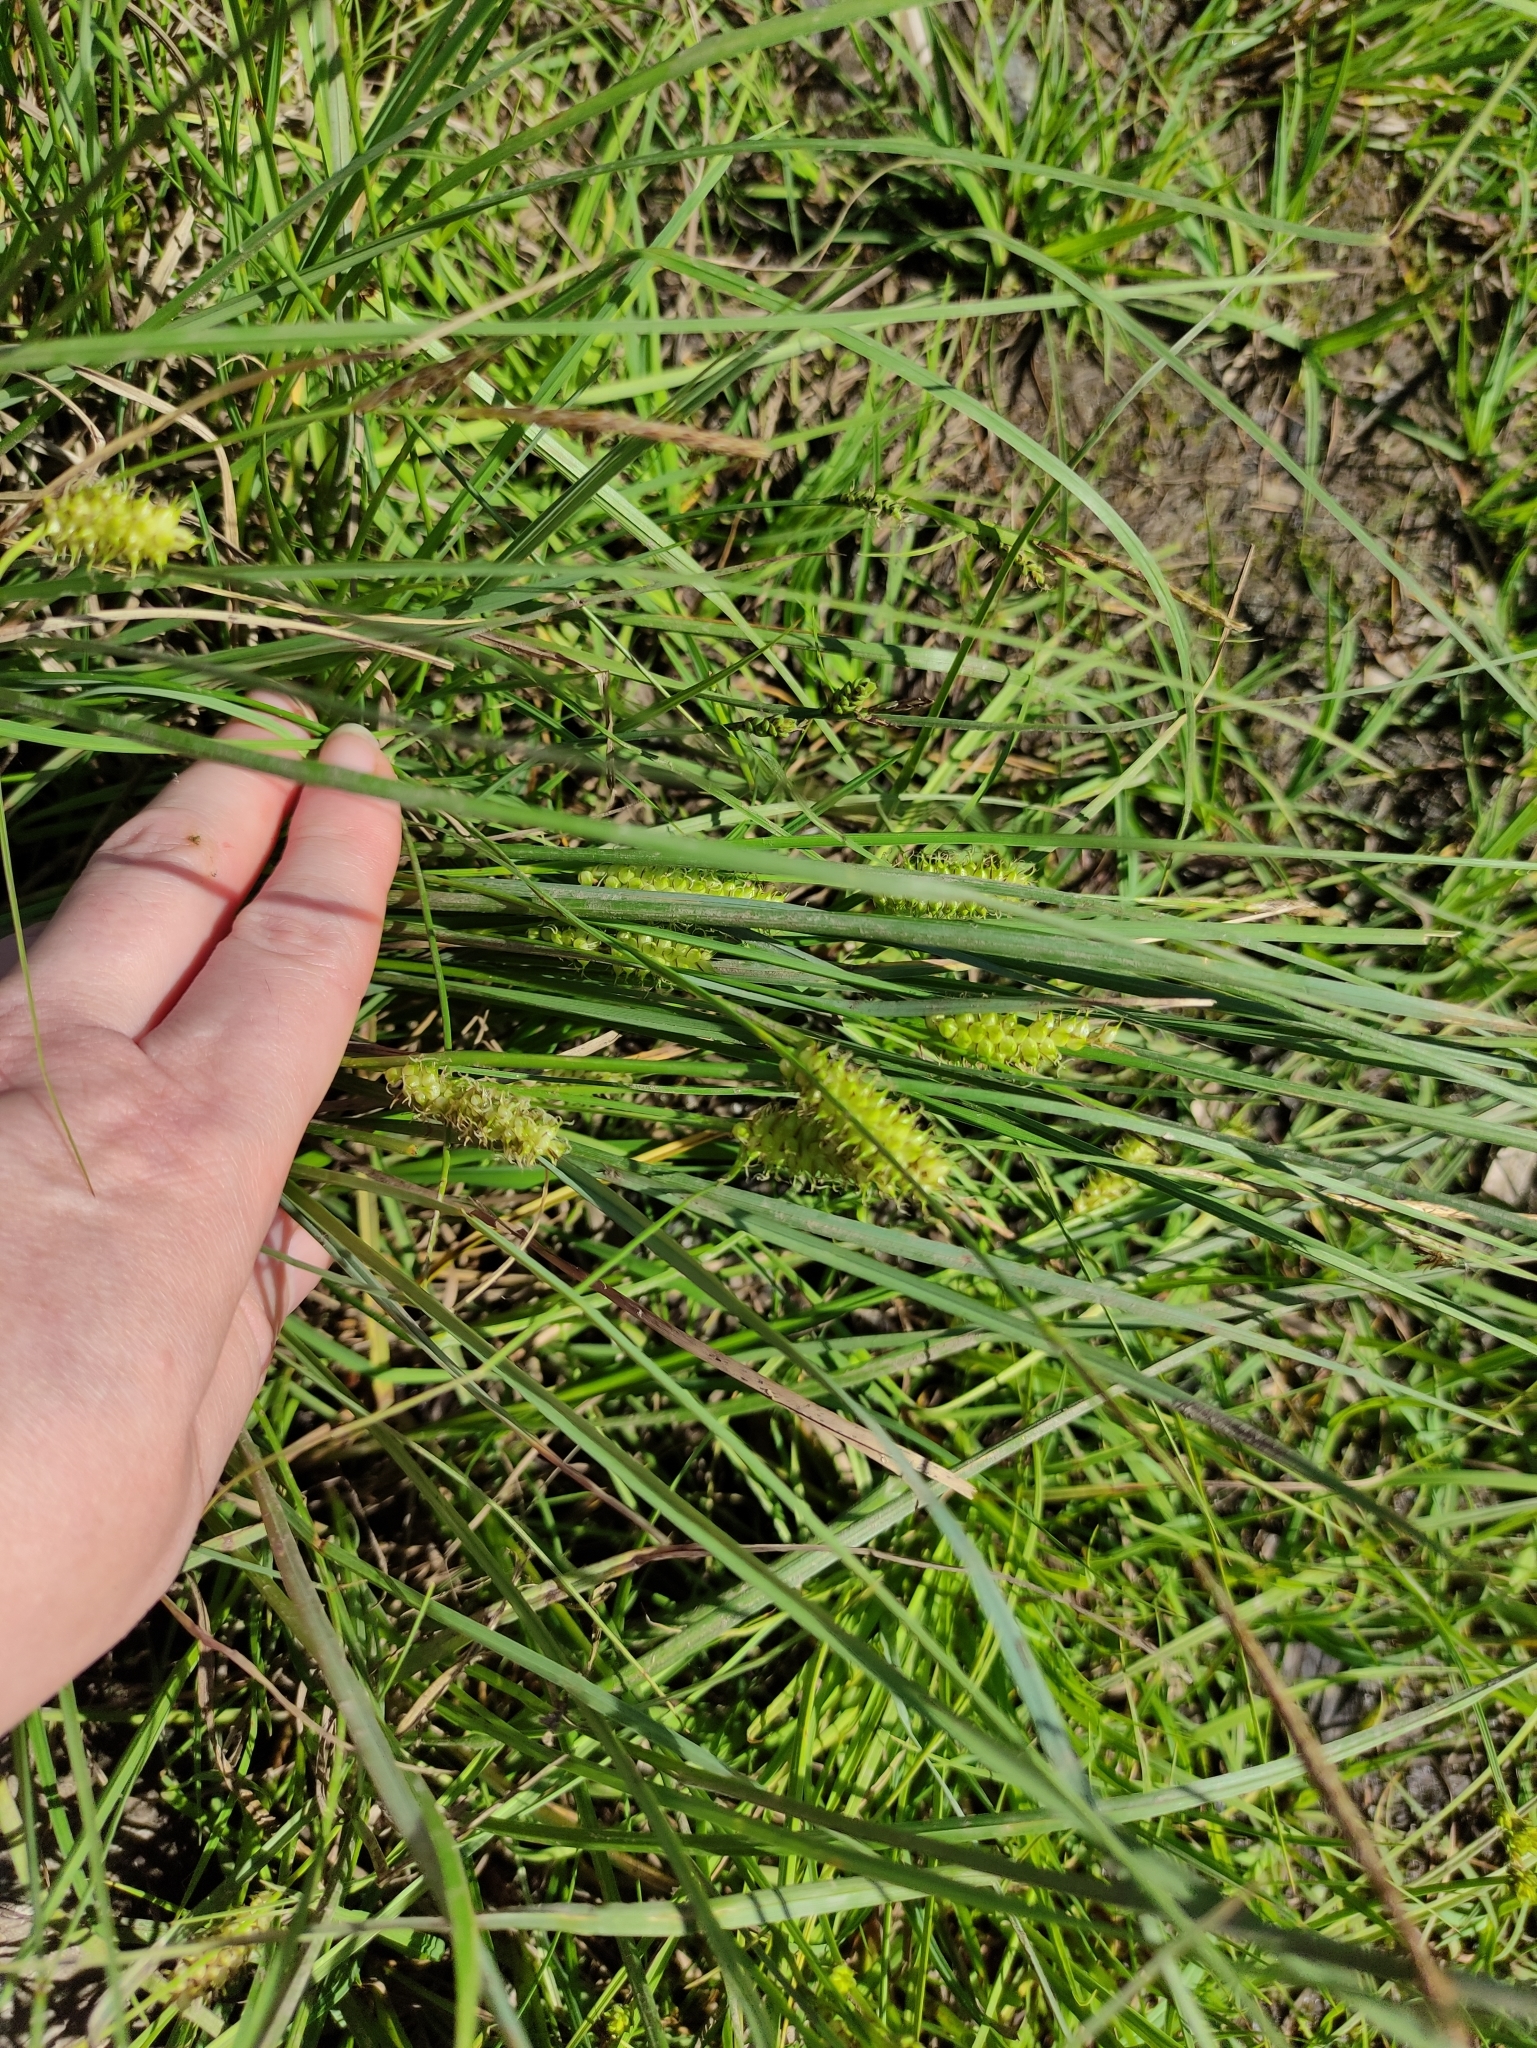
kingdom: Plantae
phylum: Tracheophyta
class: Liliopsida
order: Poales
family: Cyperaceae
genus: Carex
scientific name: Carex rostrata
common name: Bottle sedge
